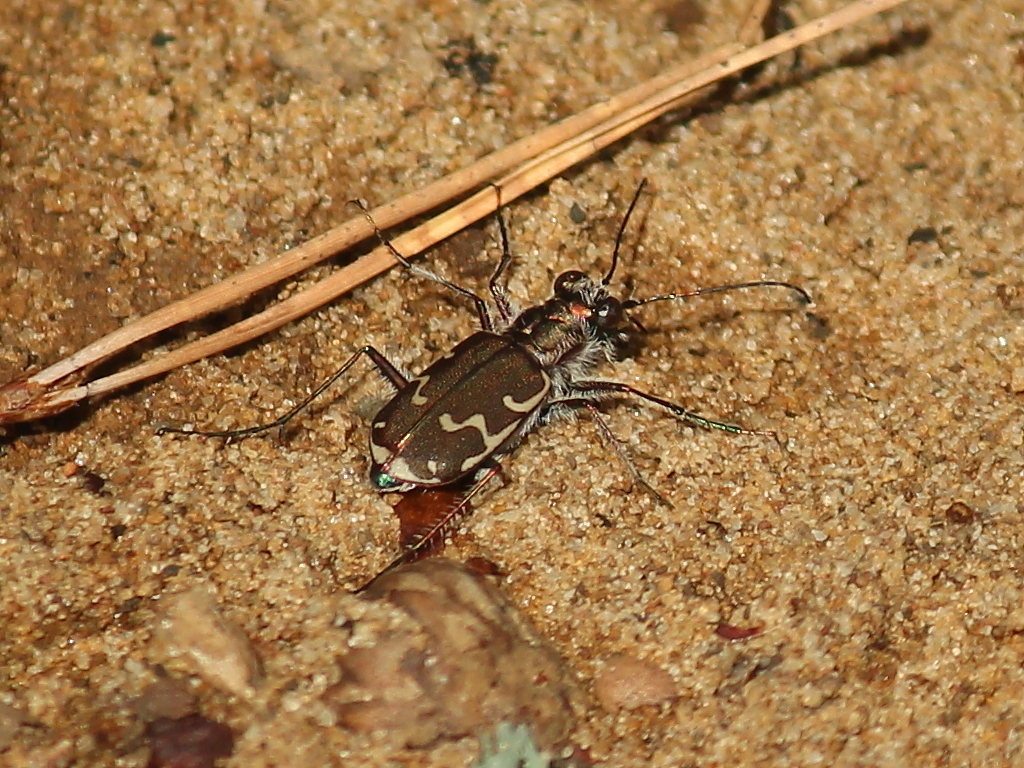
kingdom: Animalia
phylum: Arthropoda
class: Insecta
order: Coleoptera
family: Carabidae
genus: Cicindela
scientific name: Cicindela repanda
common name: Bronzed tiger beetle
